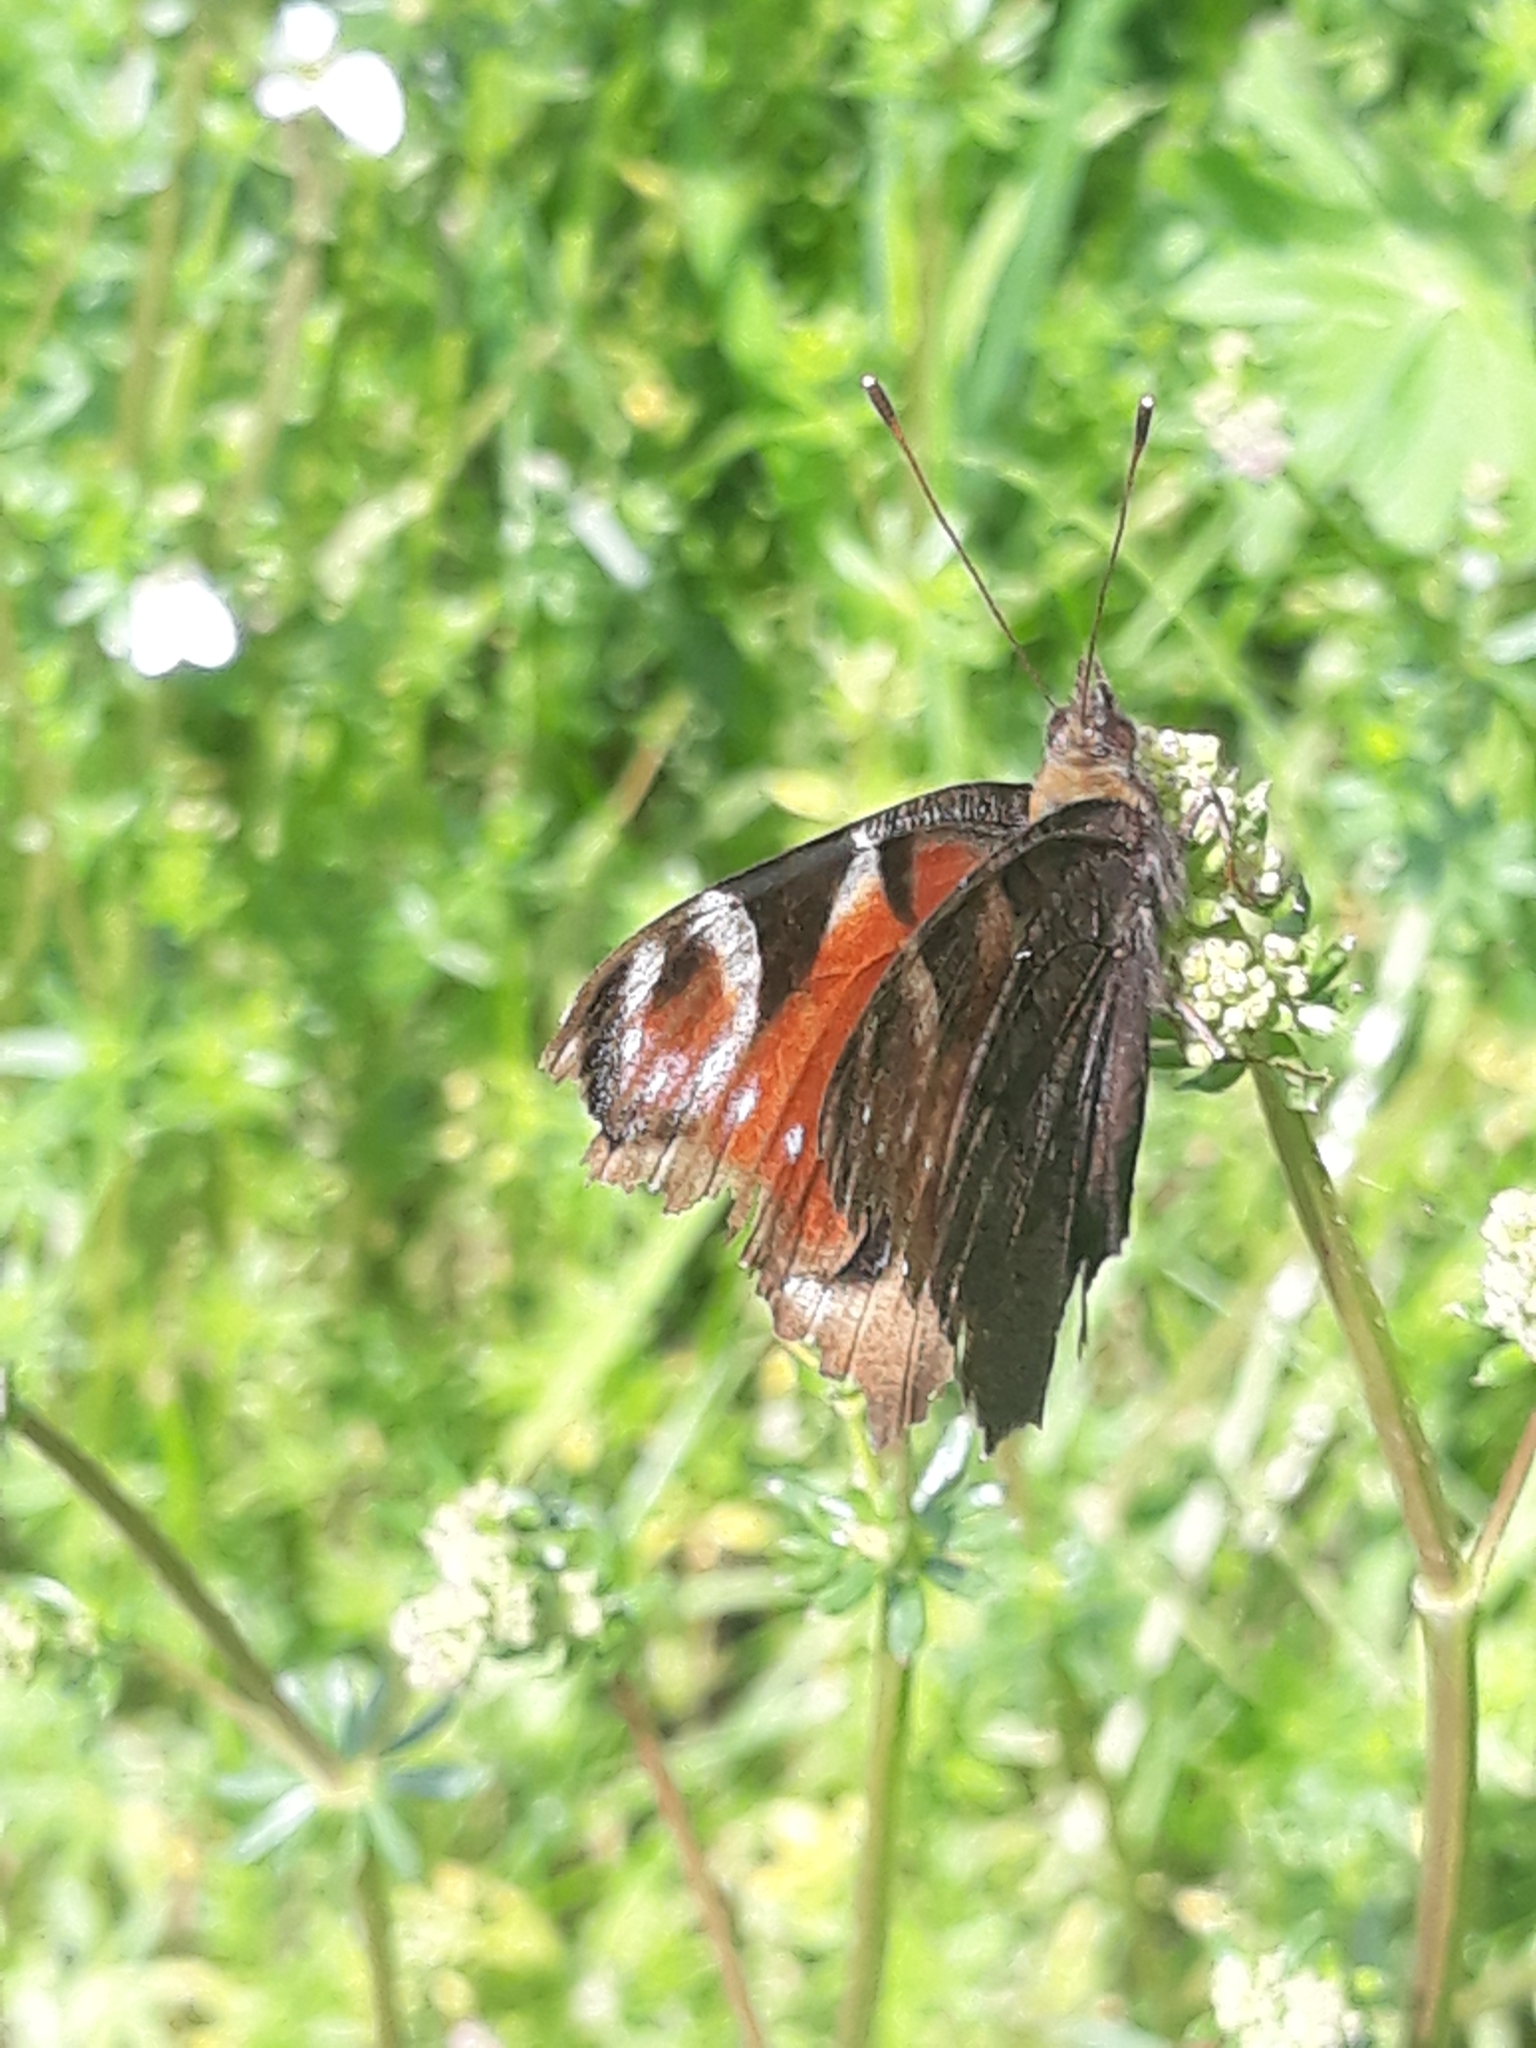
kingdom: Animalia
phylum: Arthropoda
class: Insecta
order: Lepidoptera
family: Nymphalidae
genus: Aglais
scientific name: Aglais io
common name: Peacock
